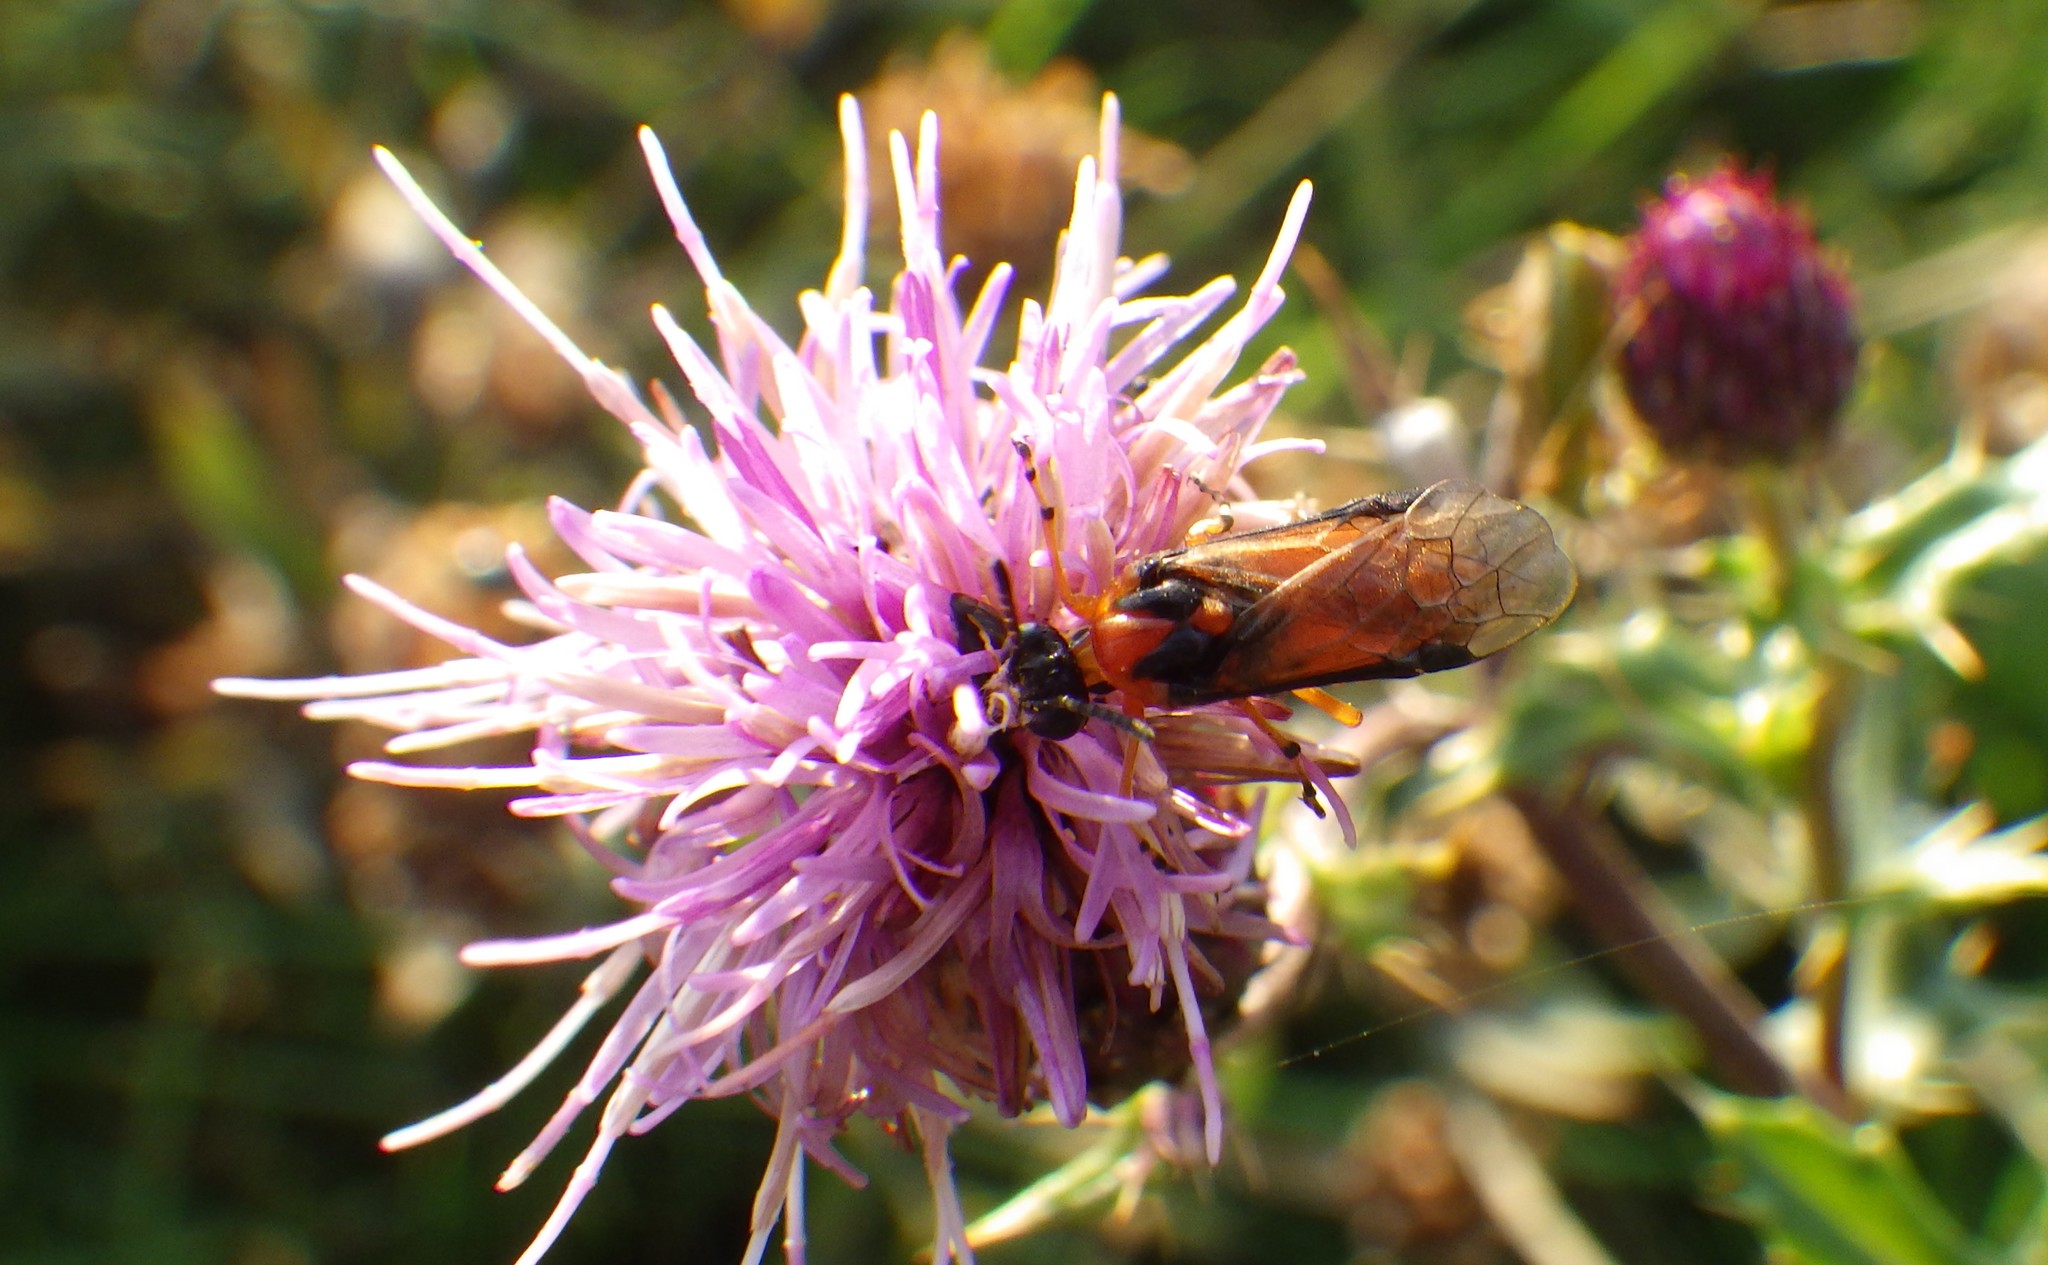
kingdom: Animalia
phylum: Arthropoda
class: Insecta
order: Hymenoptera
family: Tenthredinidae
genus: Athalia
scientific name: Athalia rosae
